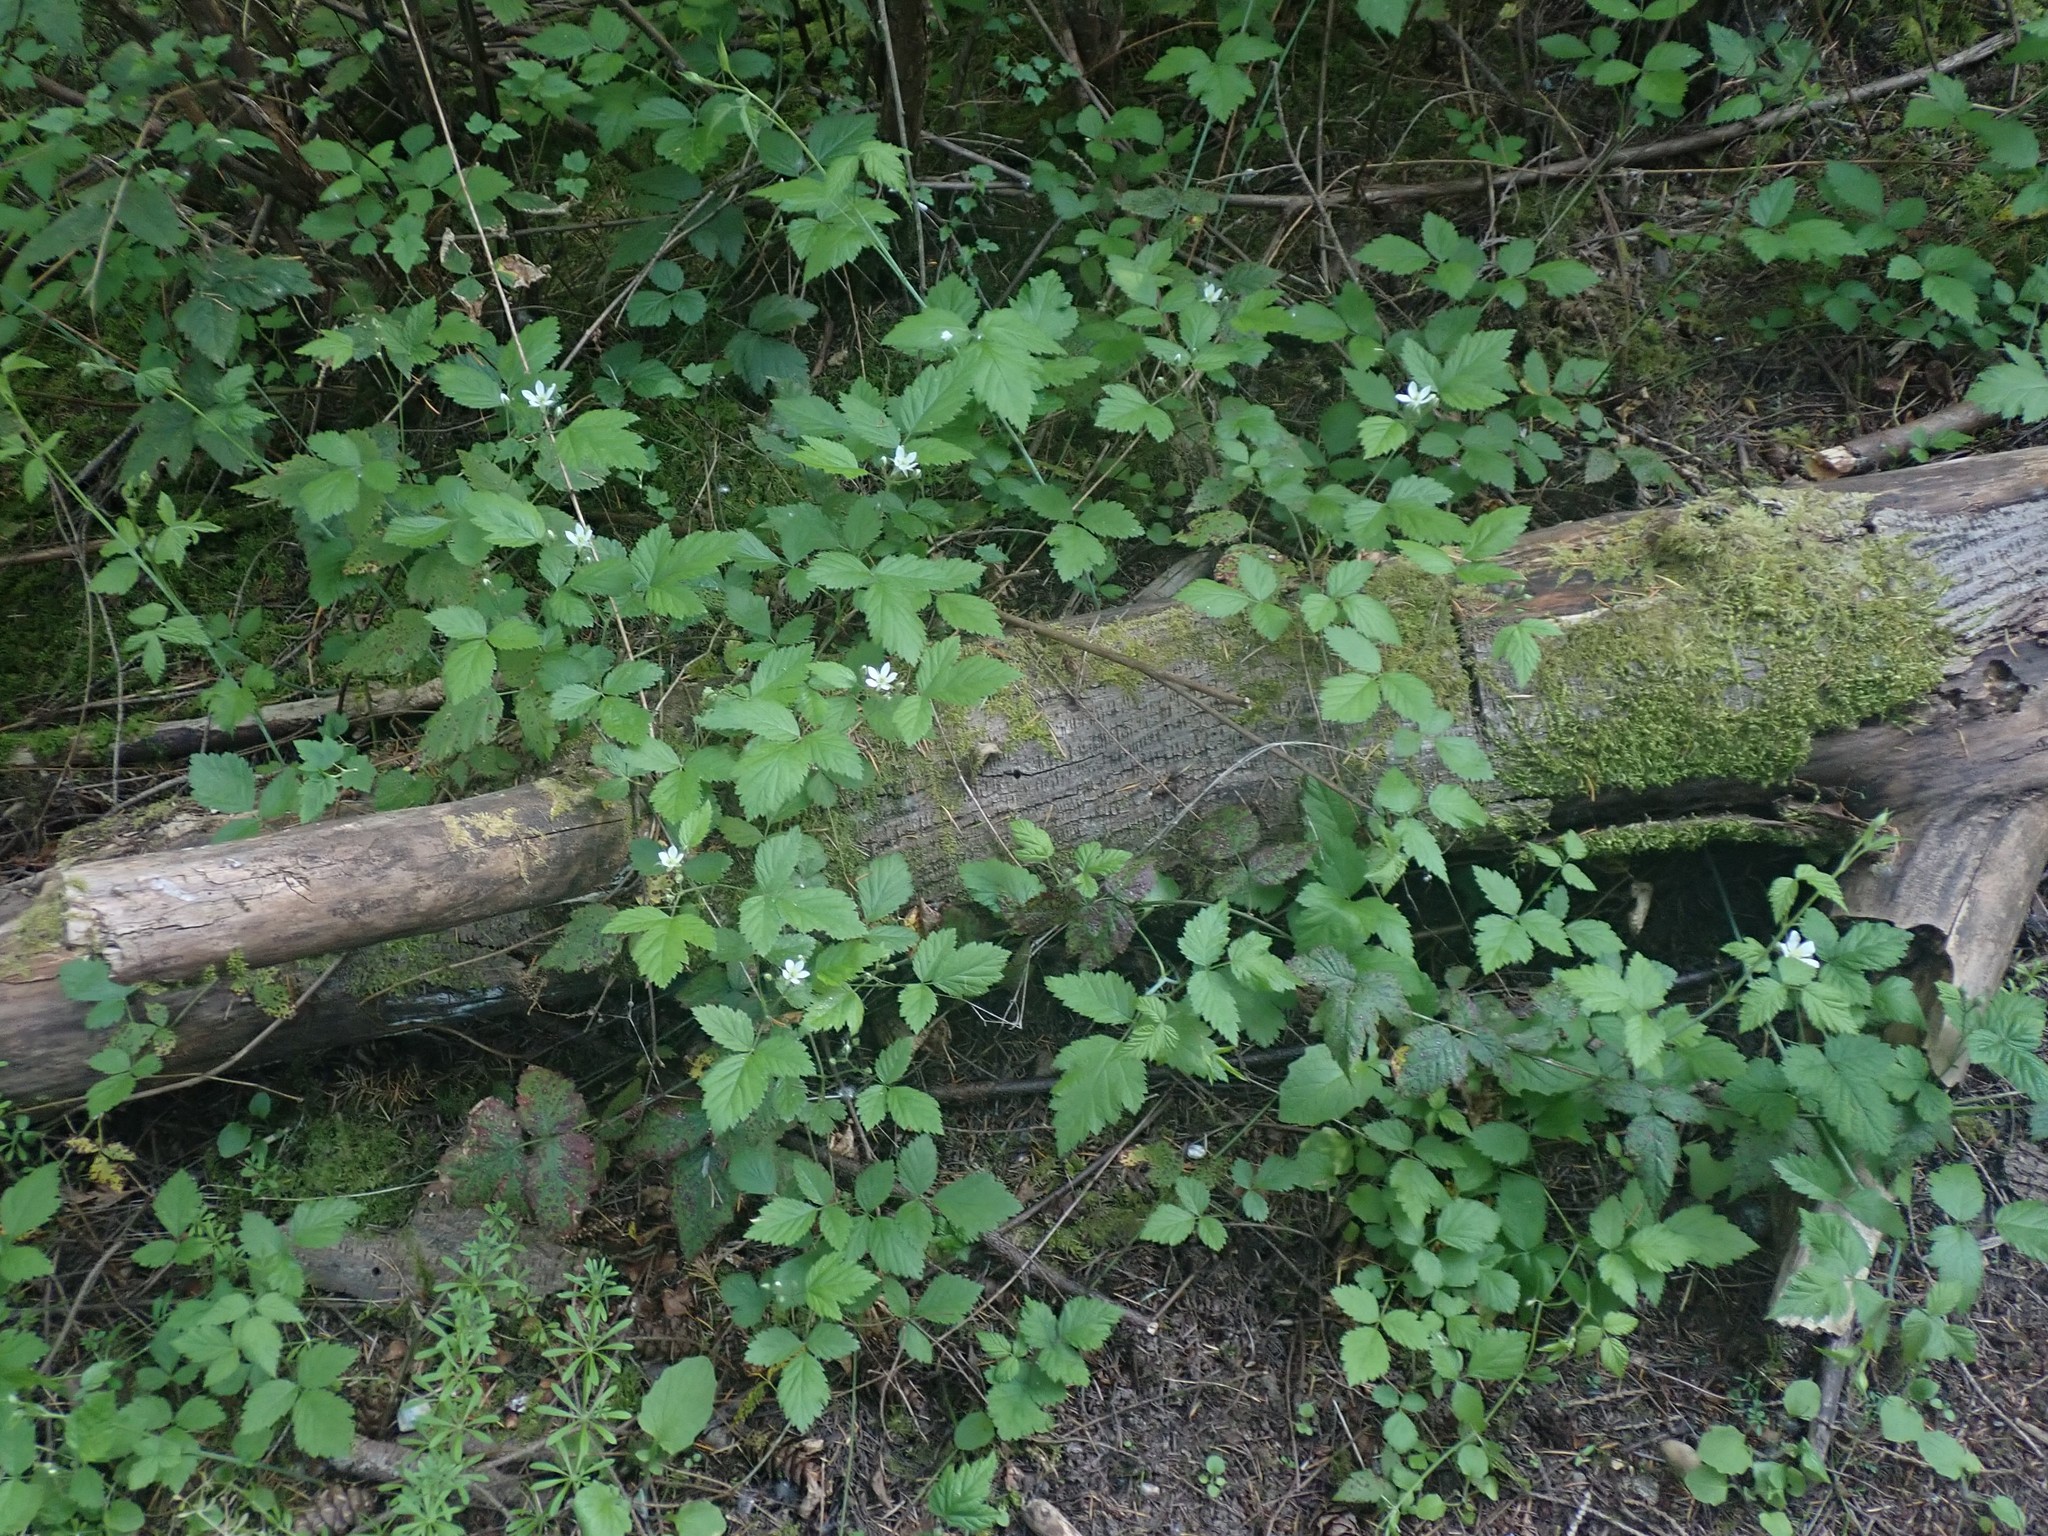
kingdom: Plantae
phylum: Tracheophyta
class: Magnoliopsida
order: Rosales
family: Rosaceae
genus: Rubus
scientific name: Rubus ursinus
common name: Pacific blackberry
